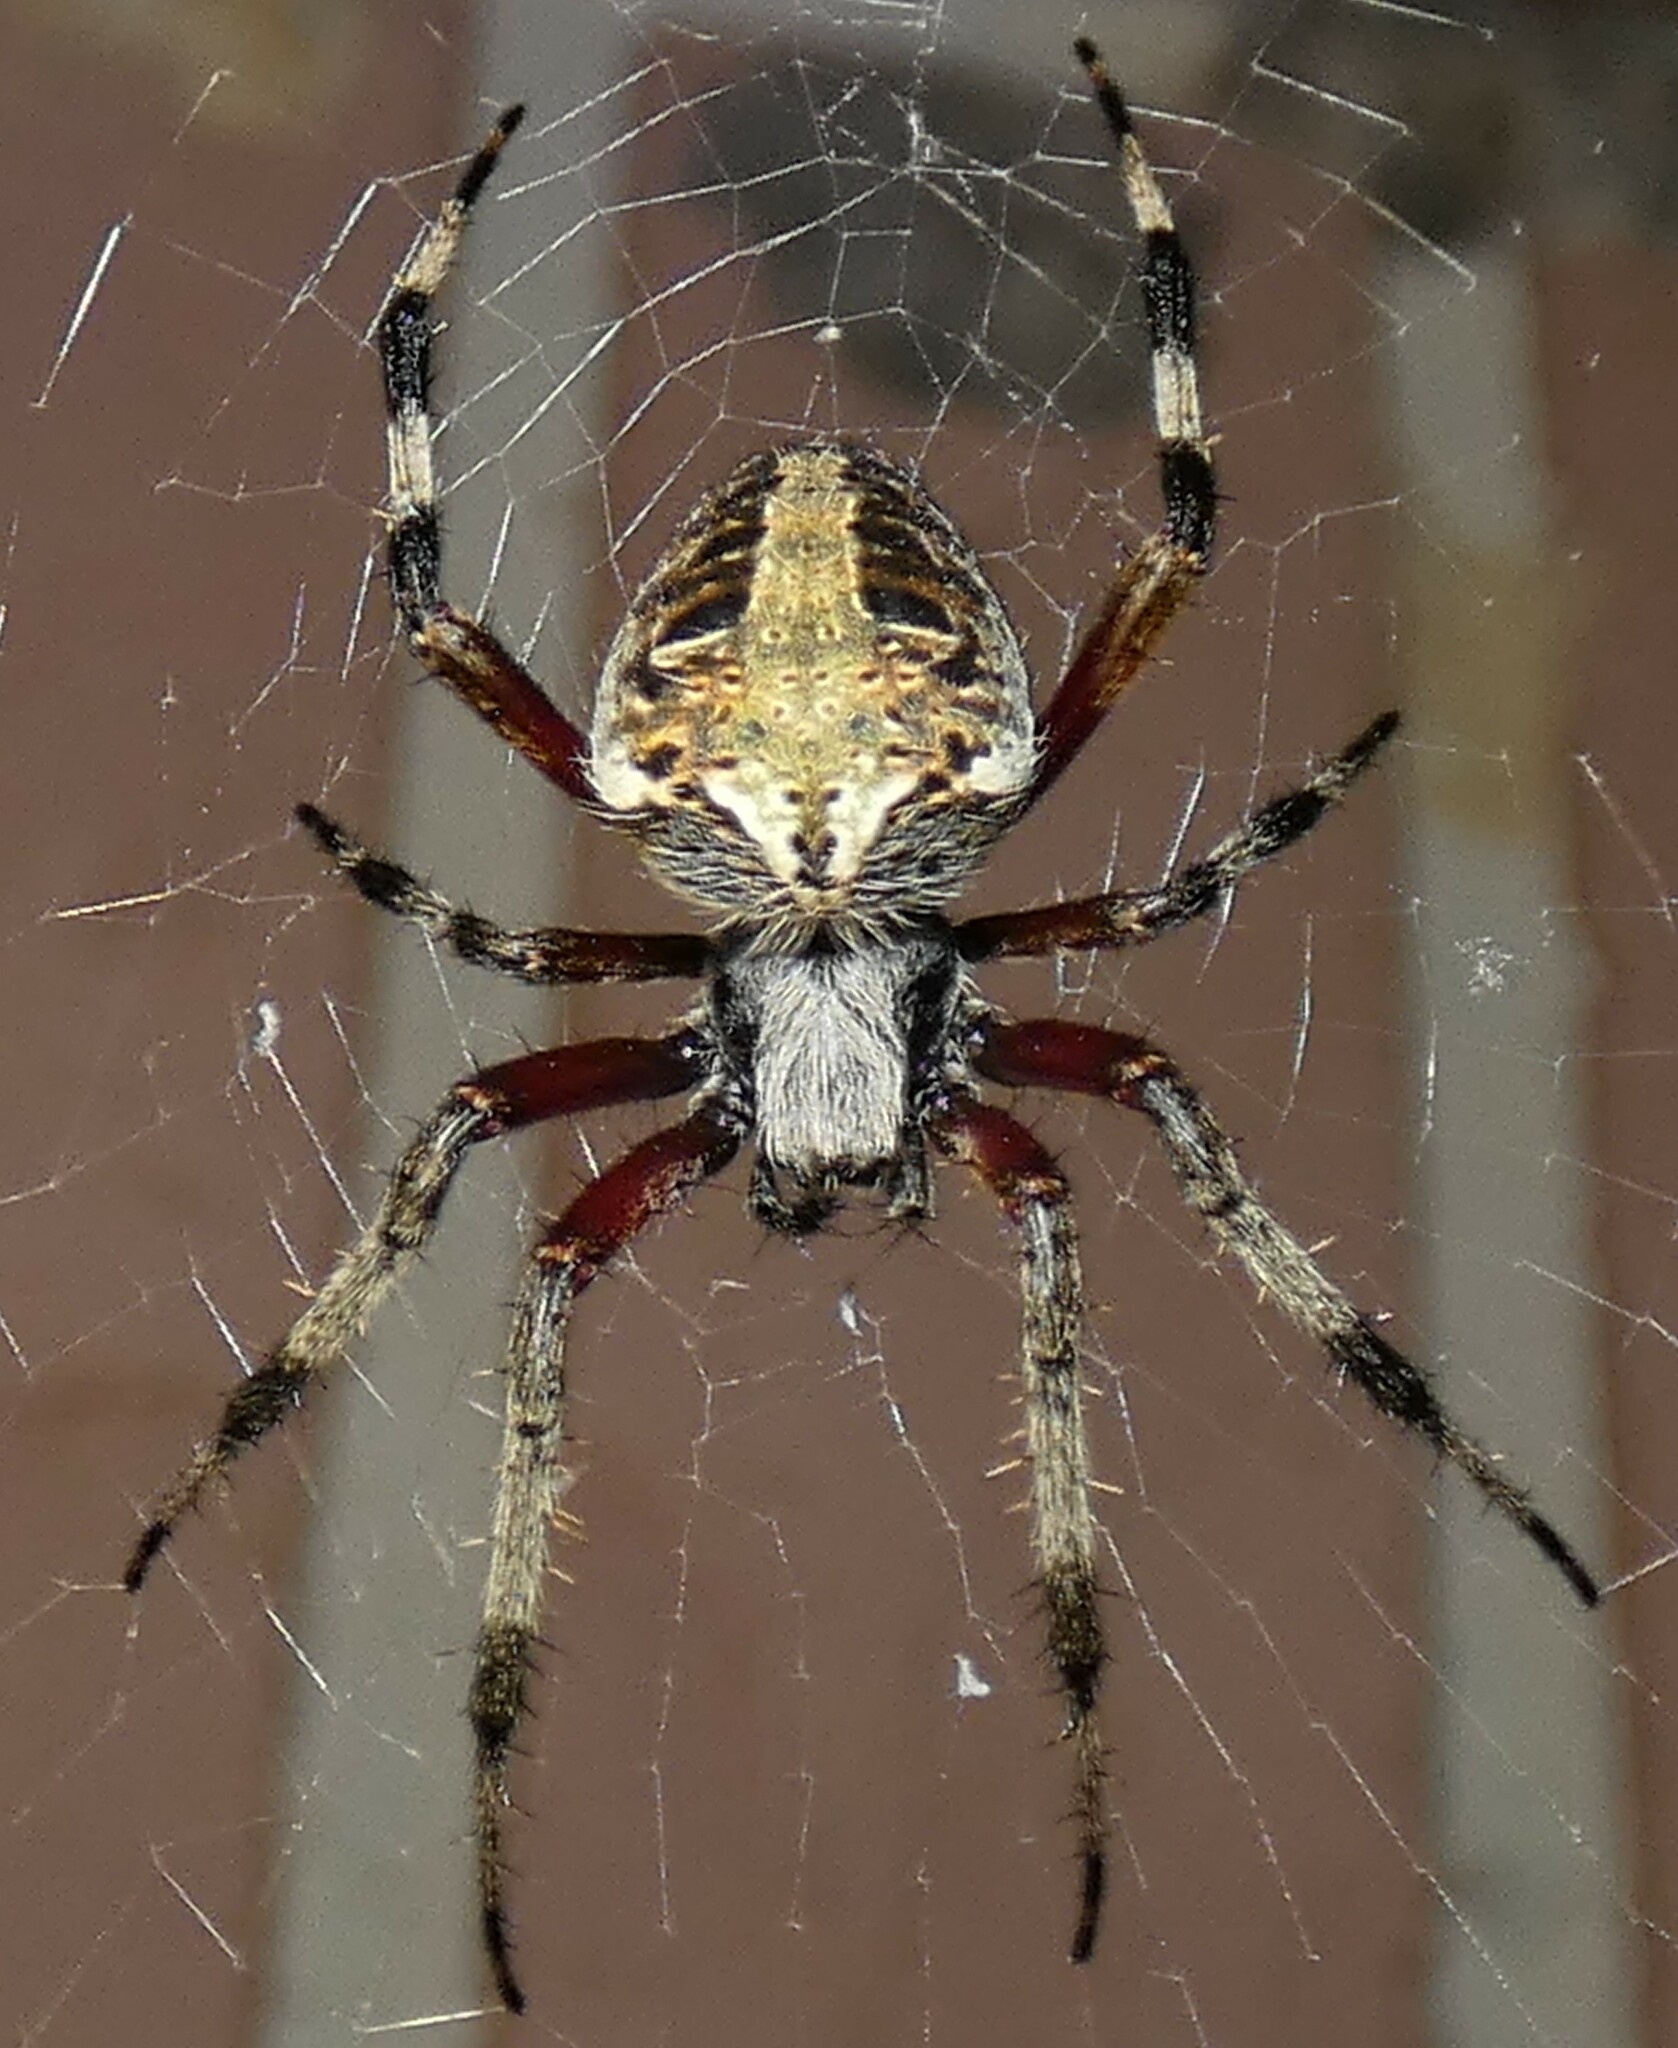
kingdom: Animalia
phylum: Arthropoda
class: Arachnida
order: Araneae
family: Araneidae
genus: Neoscona
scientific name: Neoscona domiciliorum
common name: Red-femured spotted orbweaver
